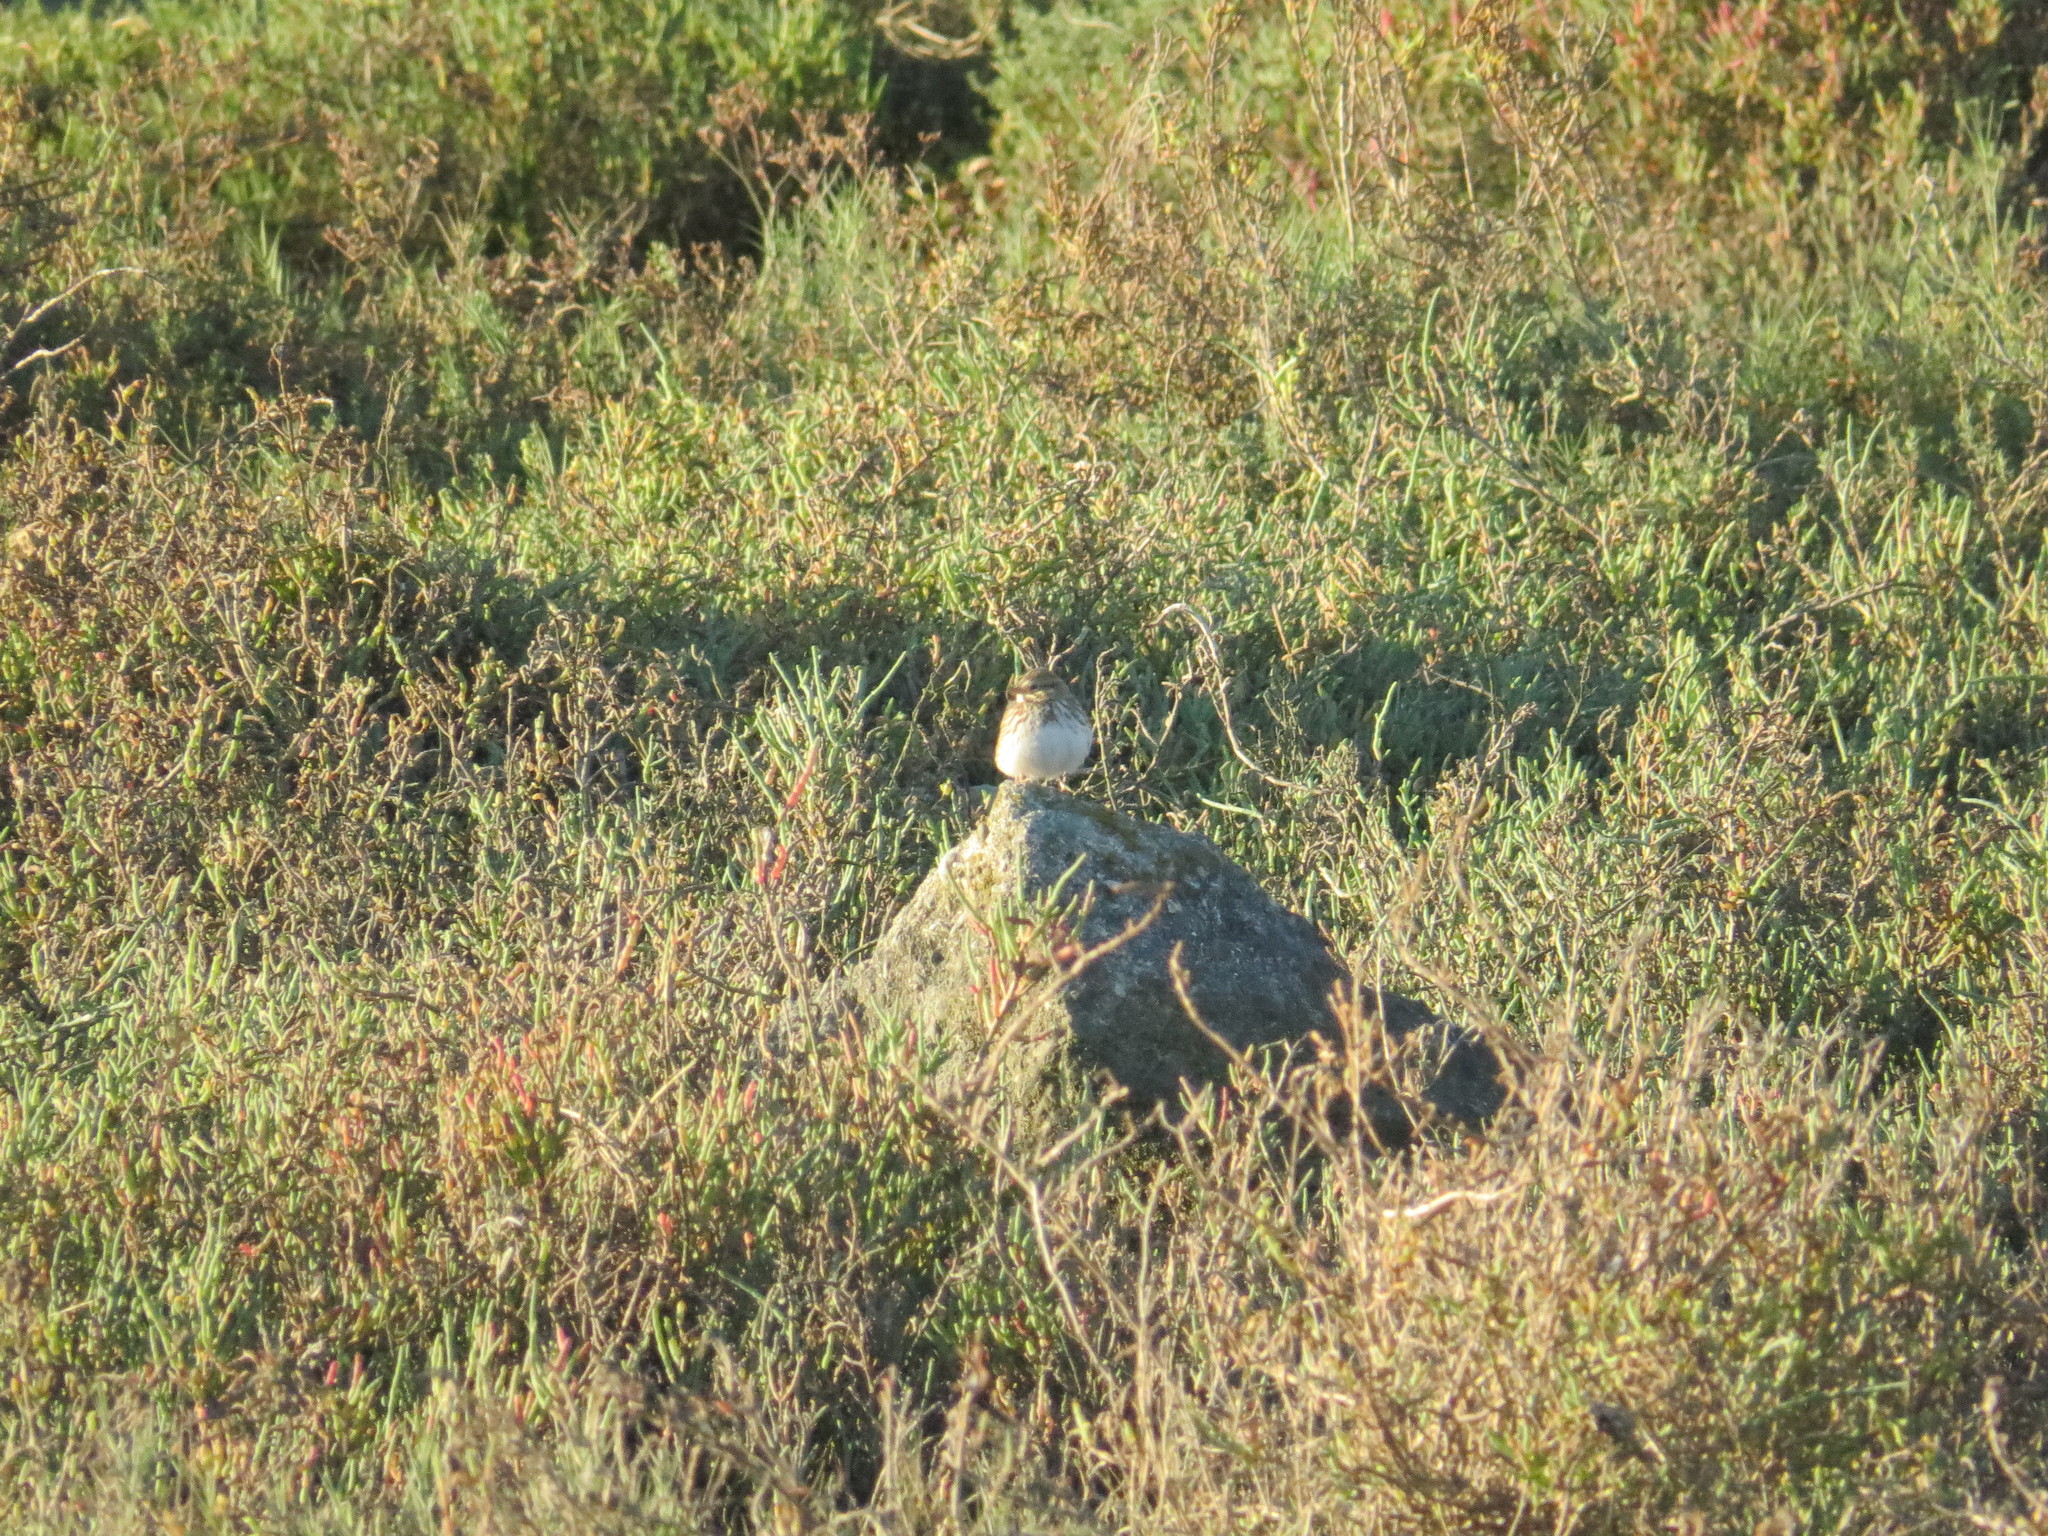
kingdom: Animalia
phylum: Chordata
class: Aves
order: Passeriformes
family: Passerellidae
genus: Passerculus
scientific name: Passerculus sandwichensis
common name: Savannah sparrow
